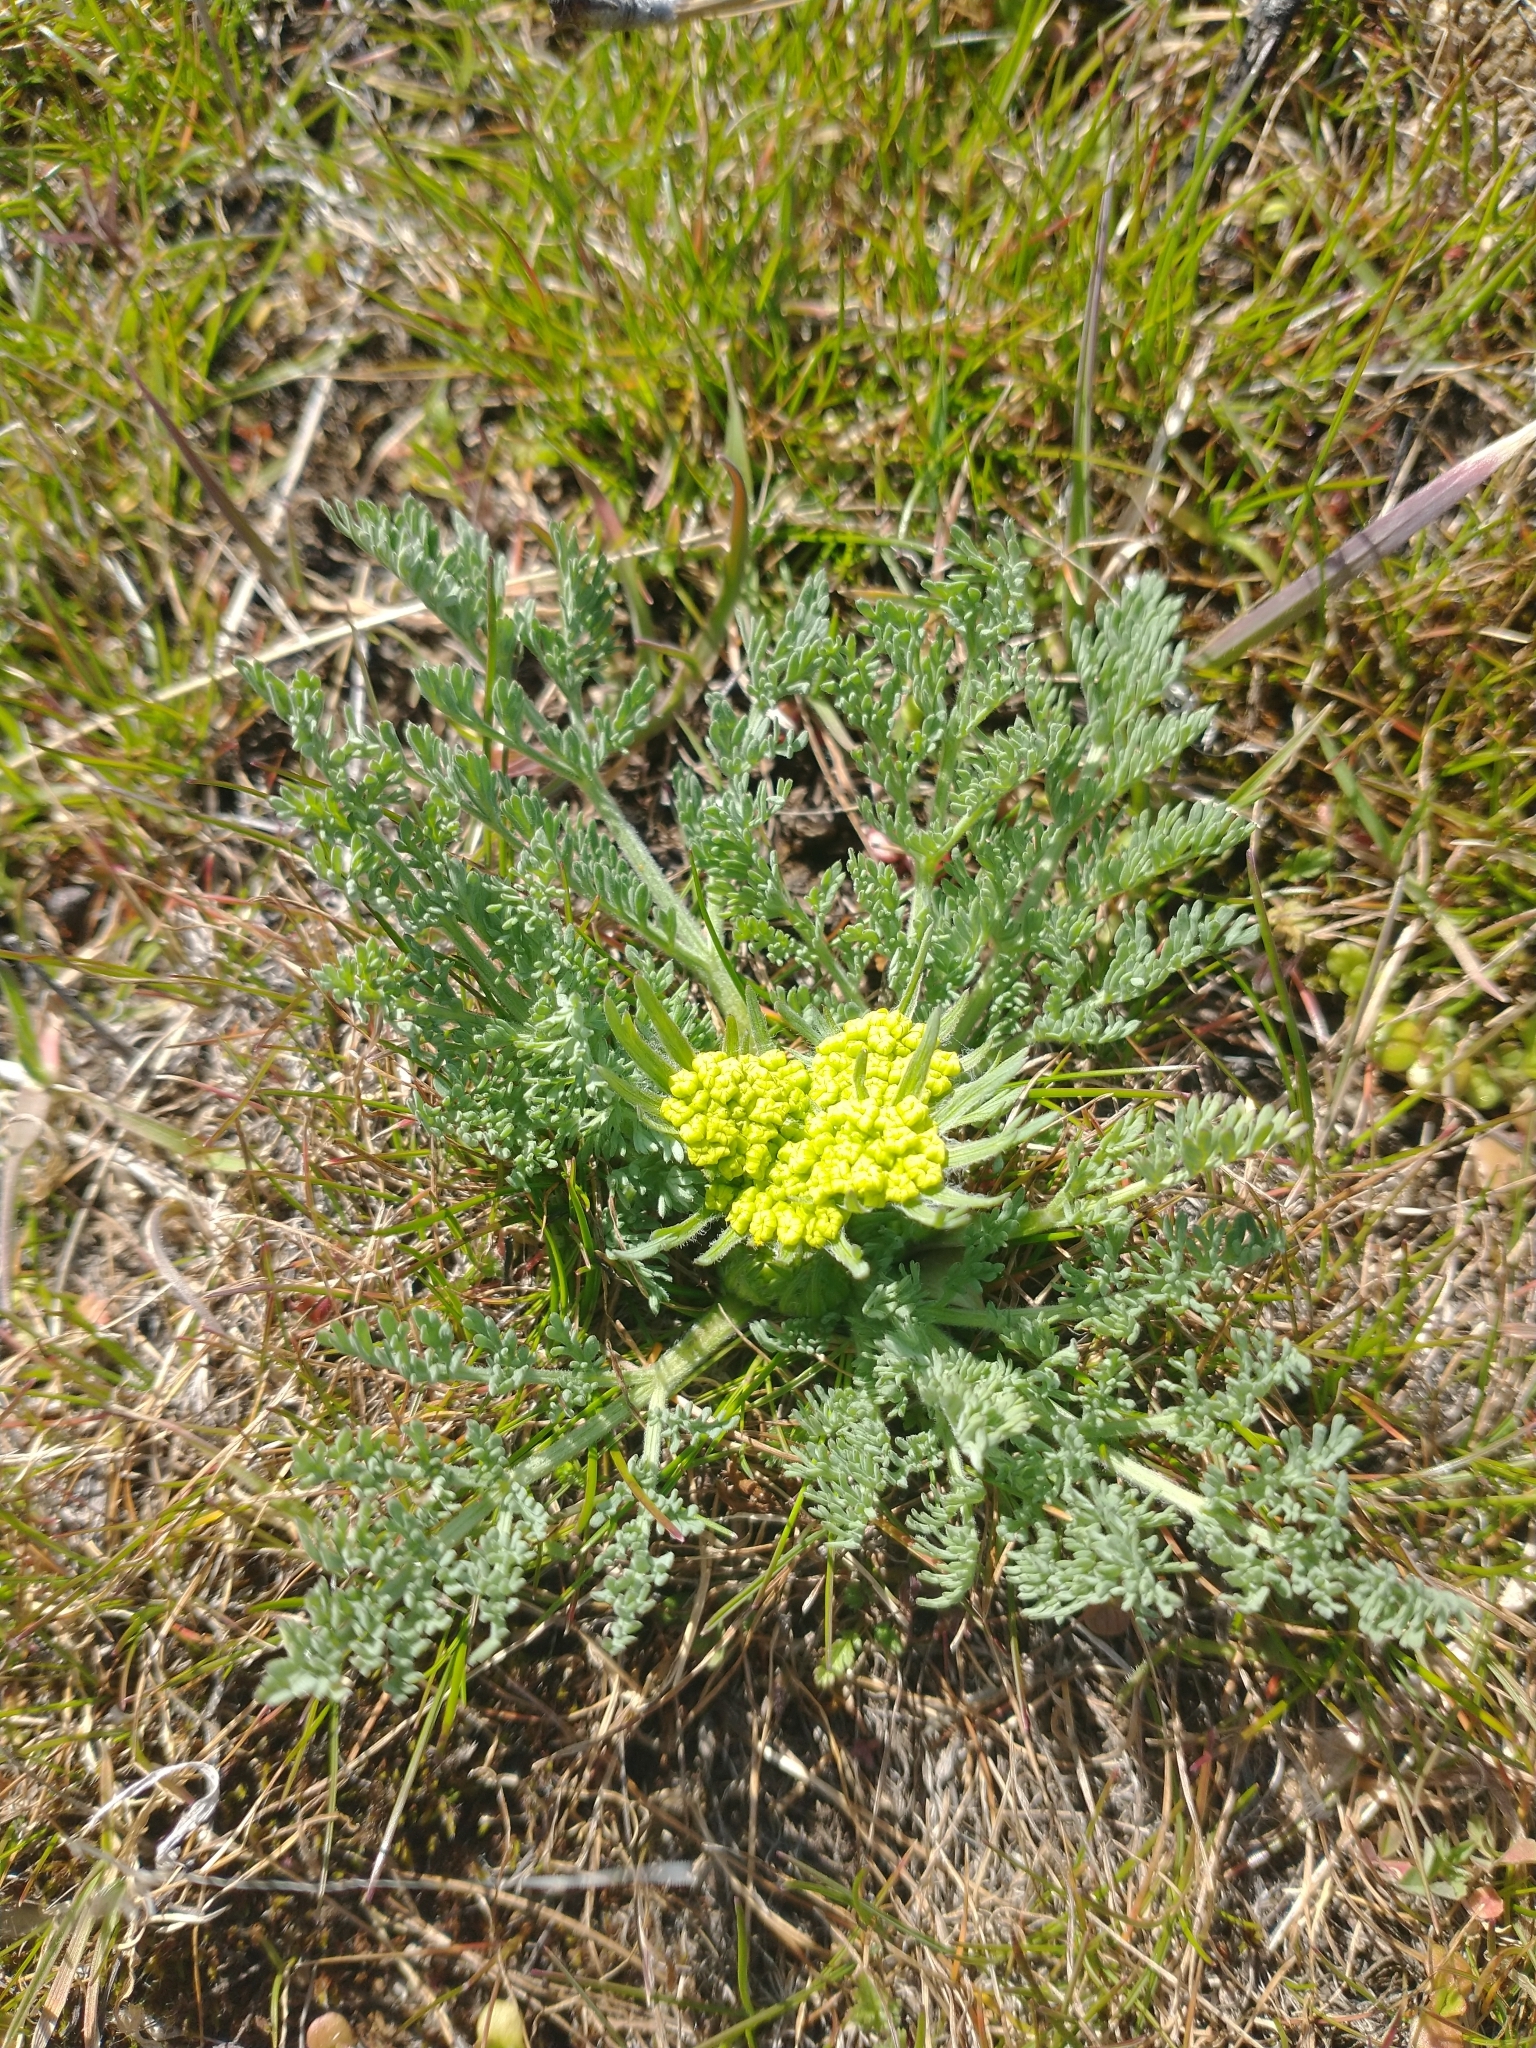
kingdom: Plantae
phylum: Tracheophyta
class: Magnoliopsida
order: Apiales
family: Apiaceae
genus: Lomatium
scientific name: Lomatium macrocarpum
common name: Big-seed biscuitroot
